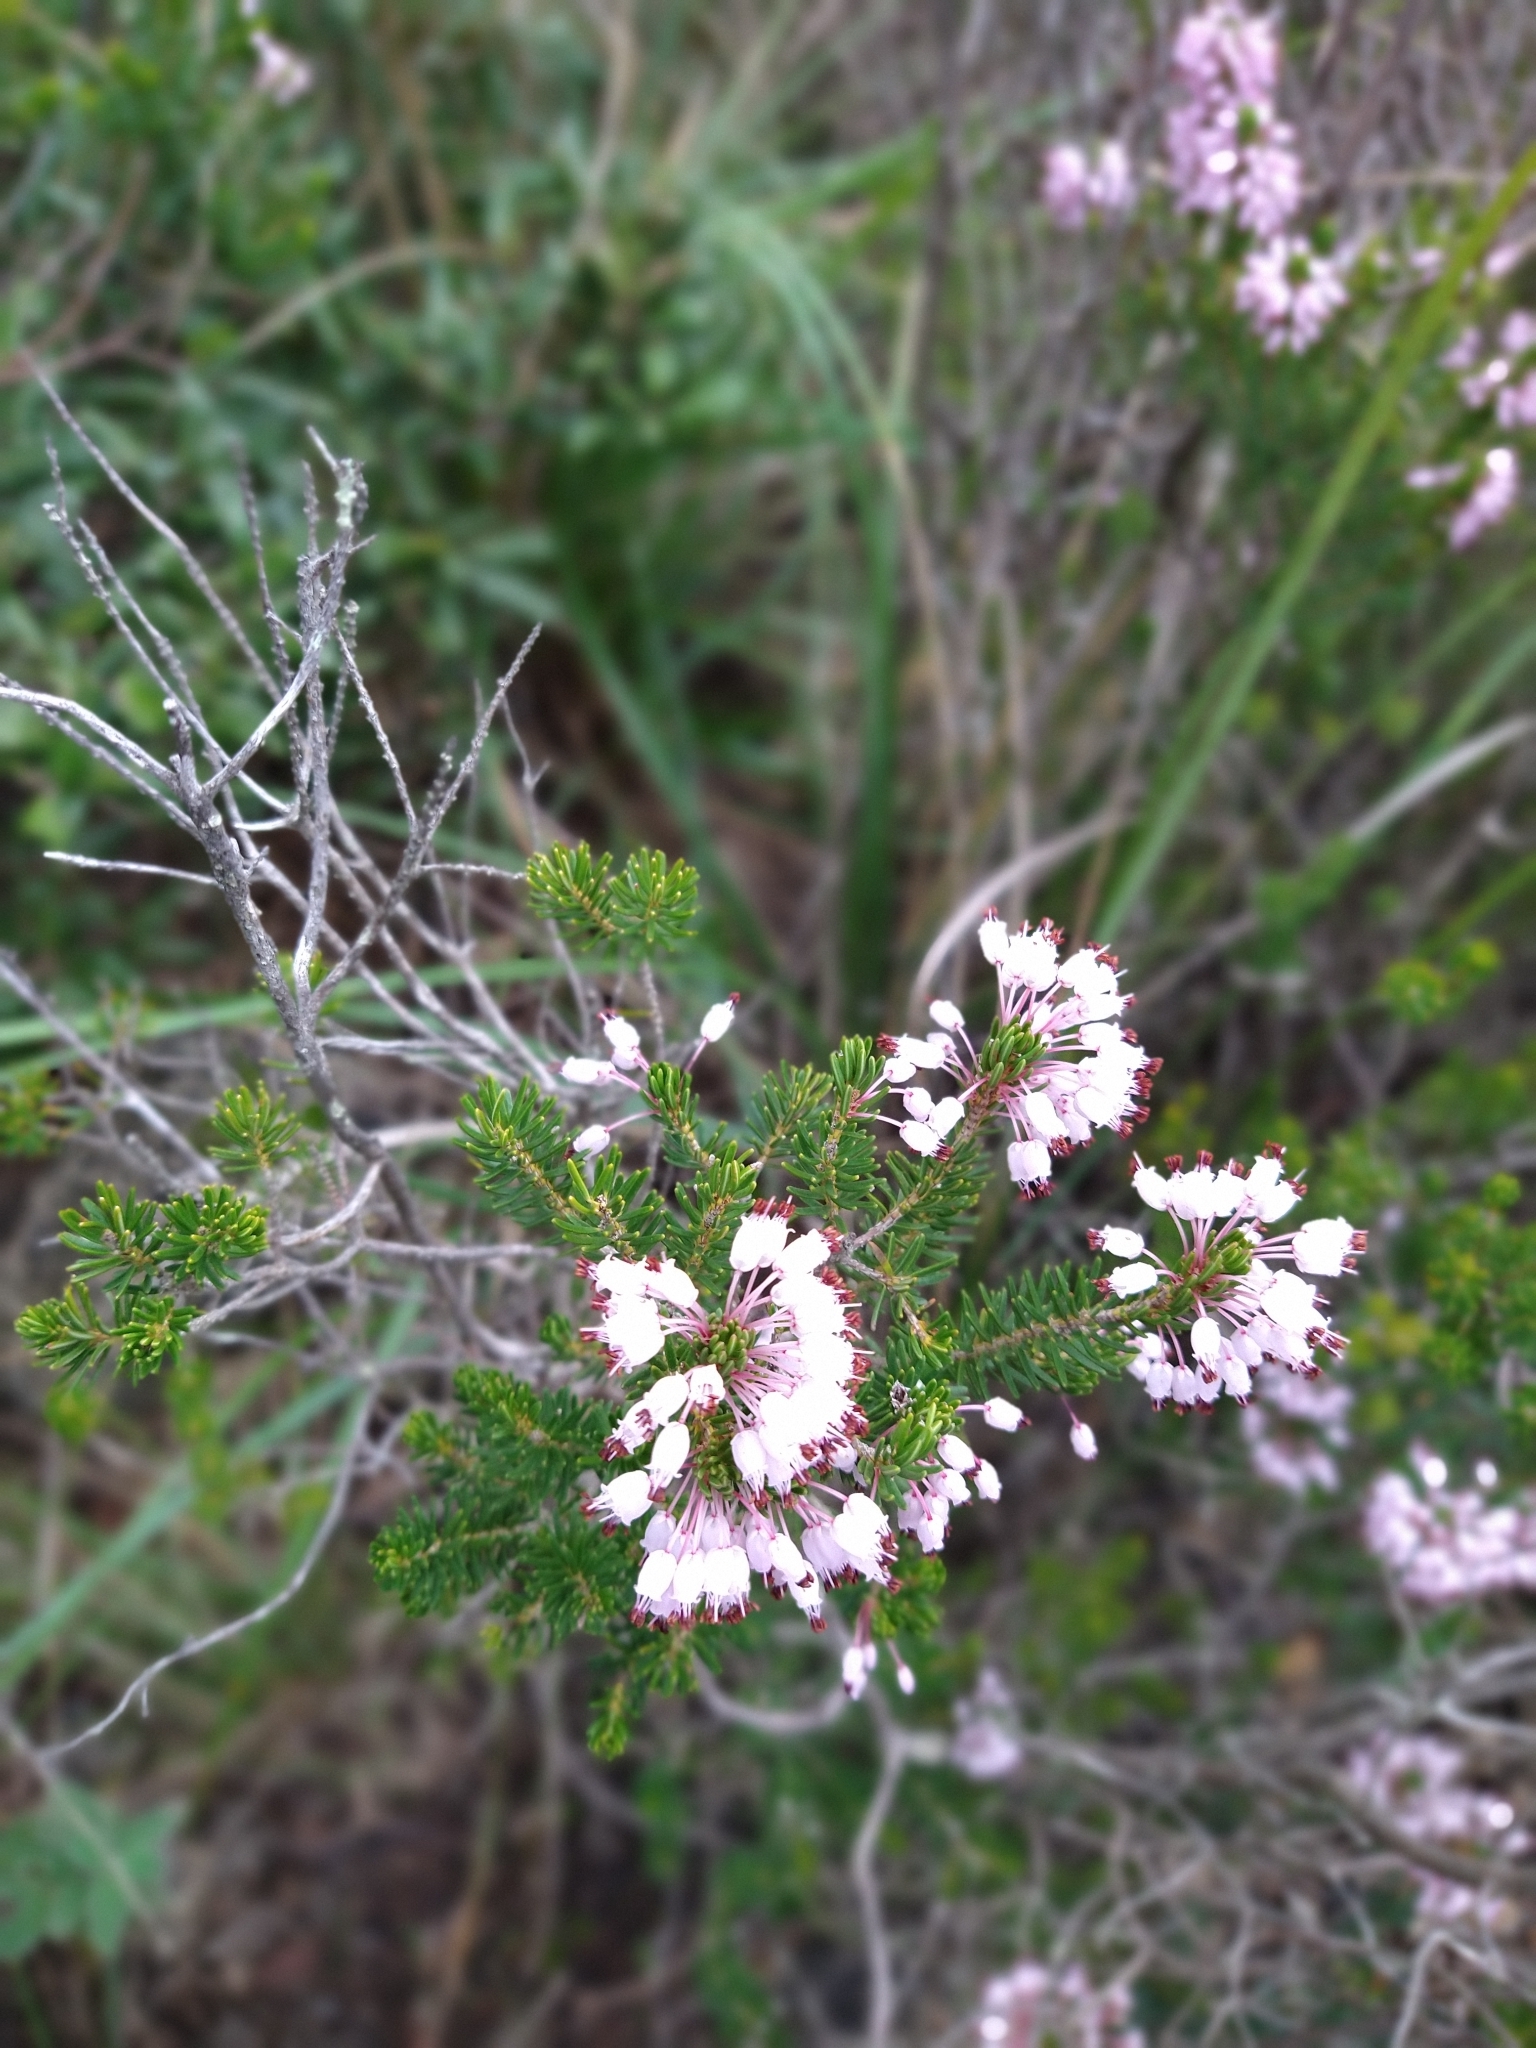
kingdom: Plantae
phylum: Tracheophyta
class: Magnoliopsida
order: Ericales
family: Ericaceae
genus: Erica
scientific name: Erica multiflora
